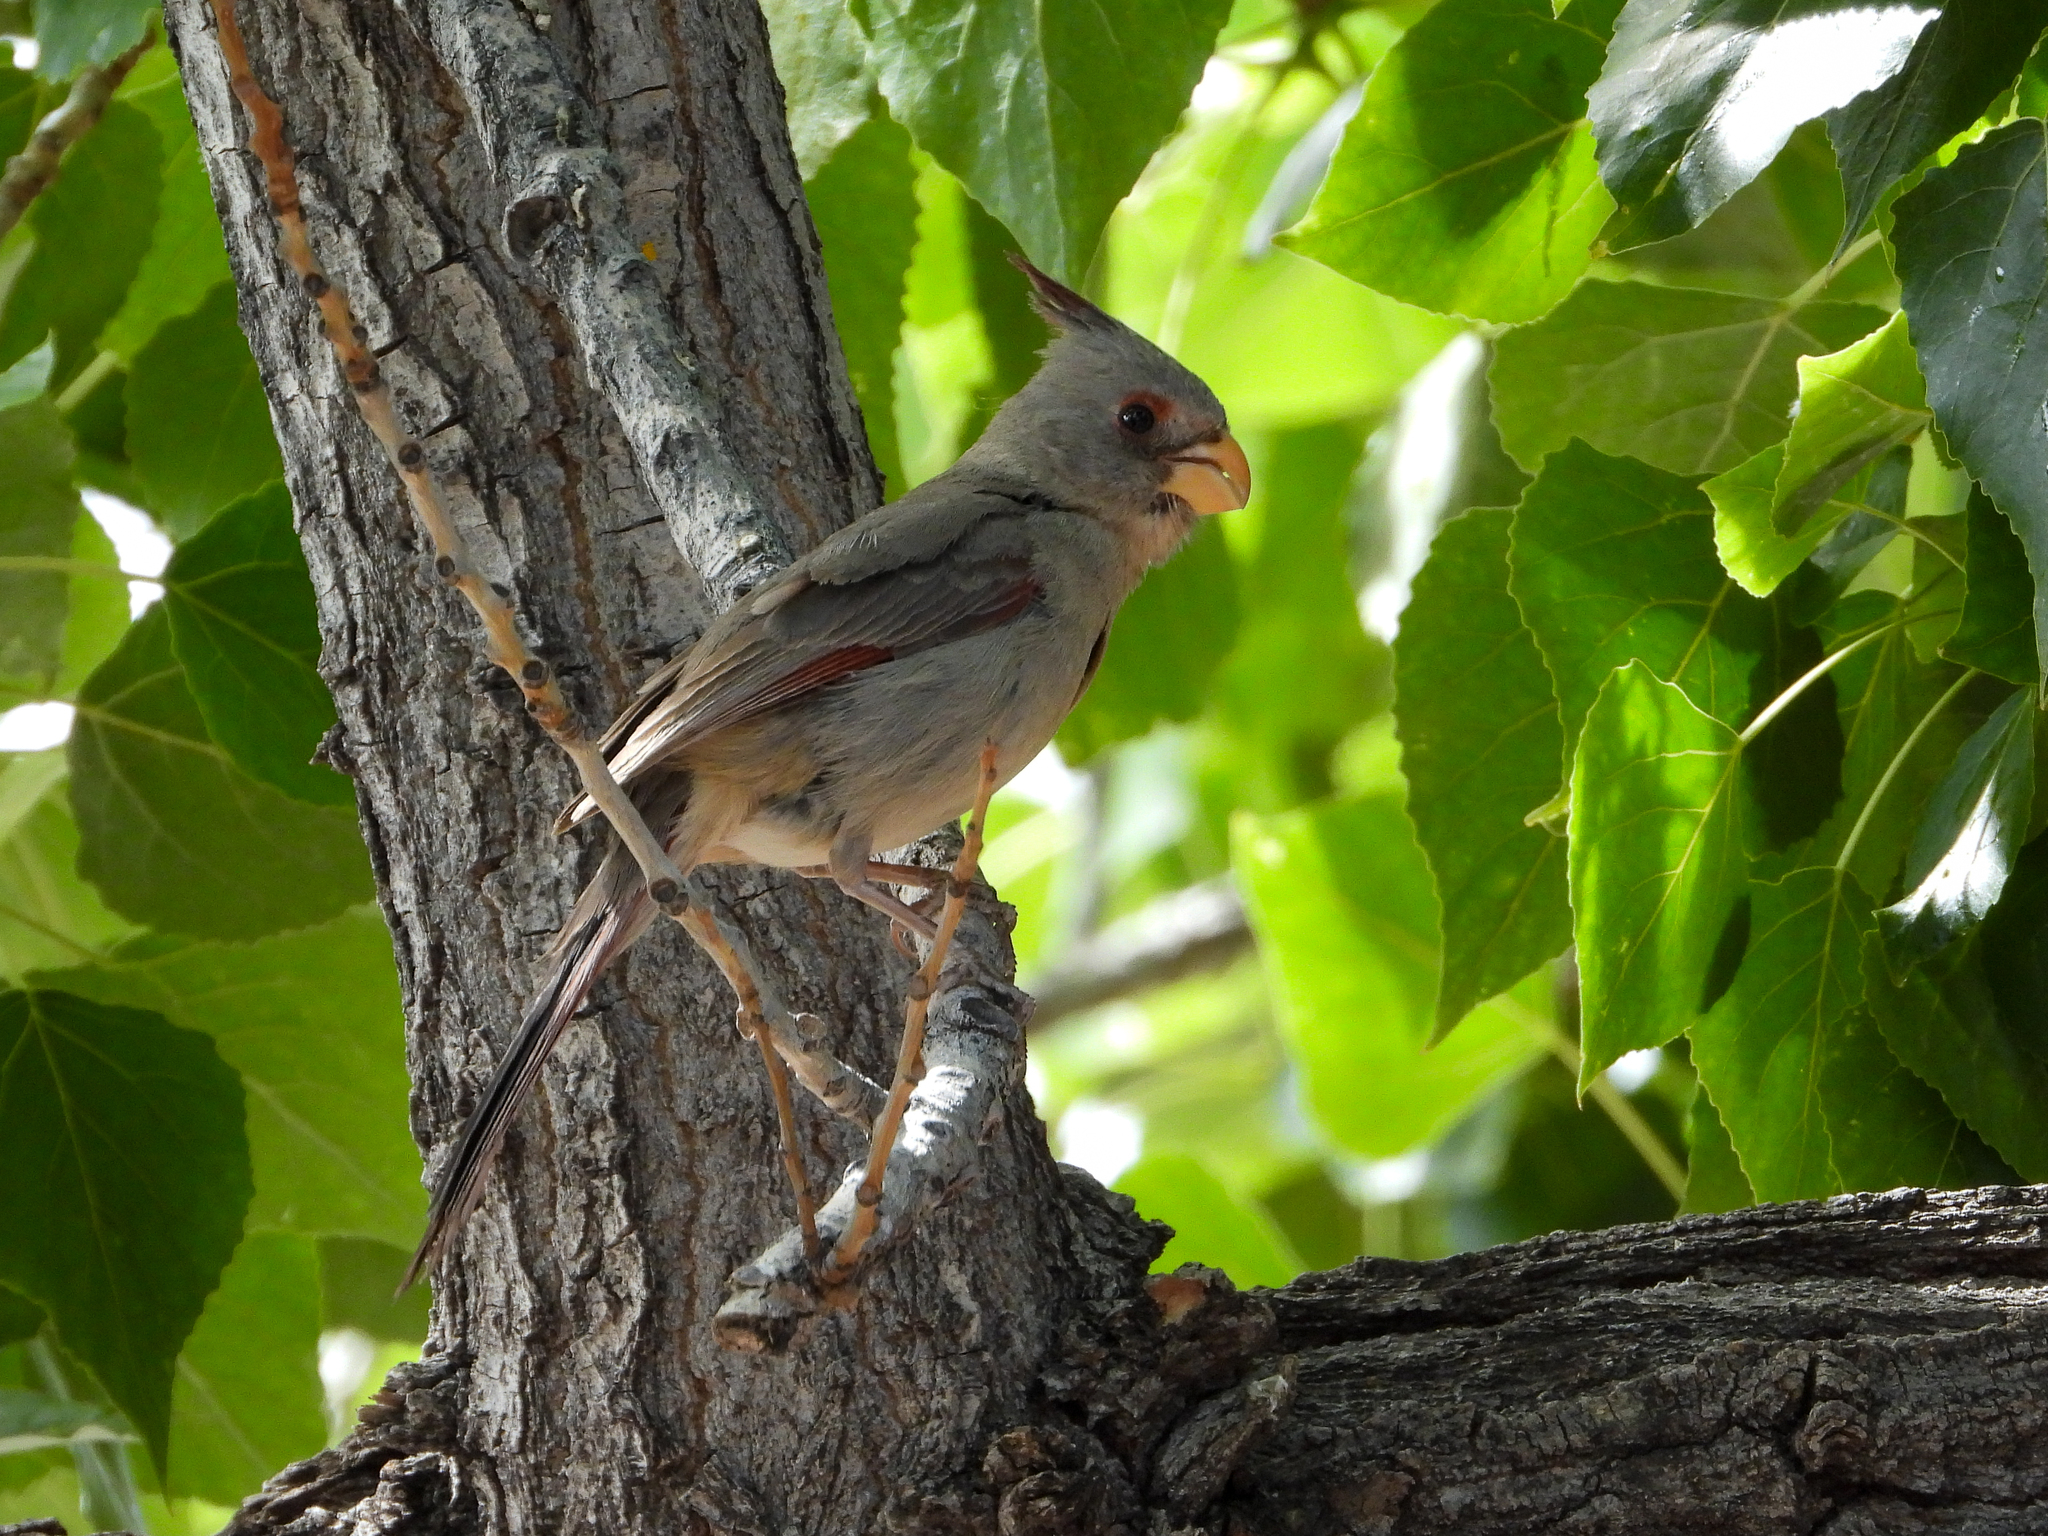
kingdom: Animalia
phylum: Chordata
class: Aves
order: Passeriformes
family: Cardinalidae
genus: Cardinalis
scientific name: Cardinalis sinuatus
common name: Pyrrhuloxia
